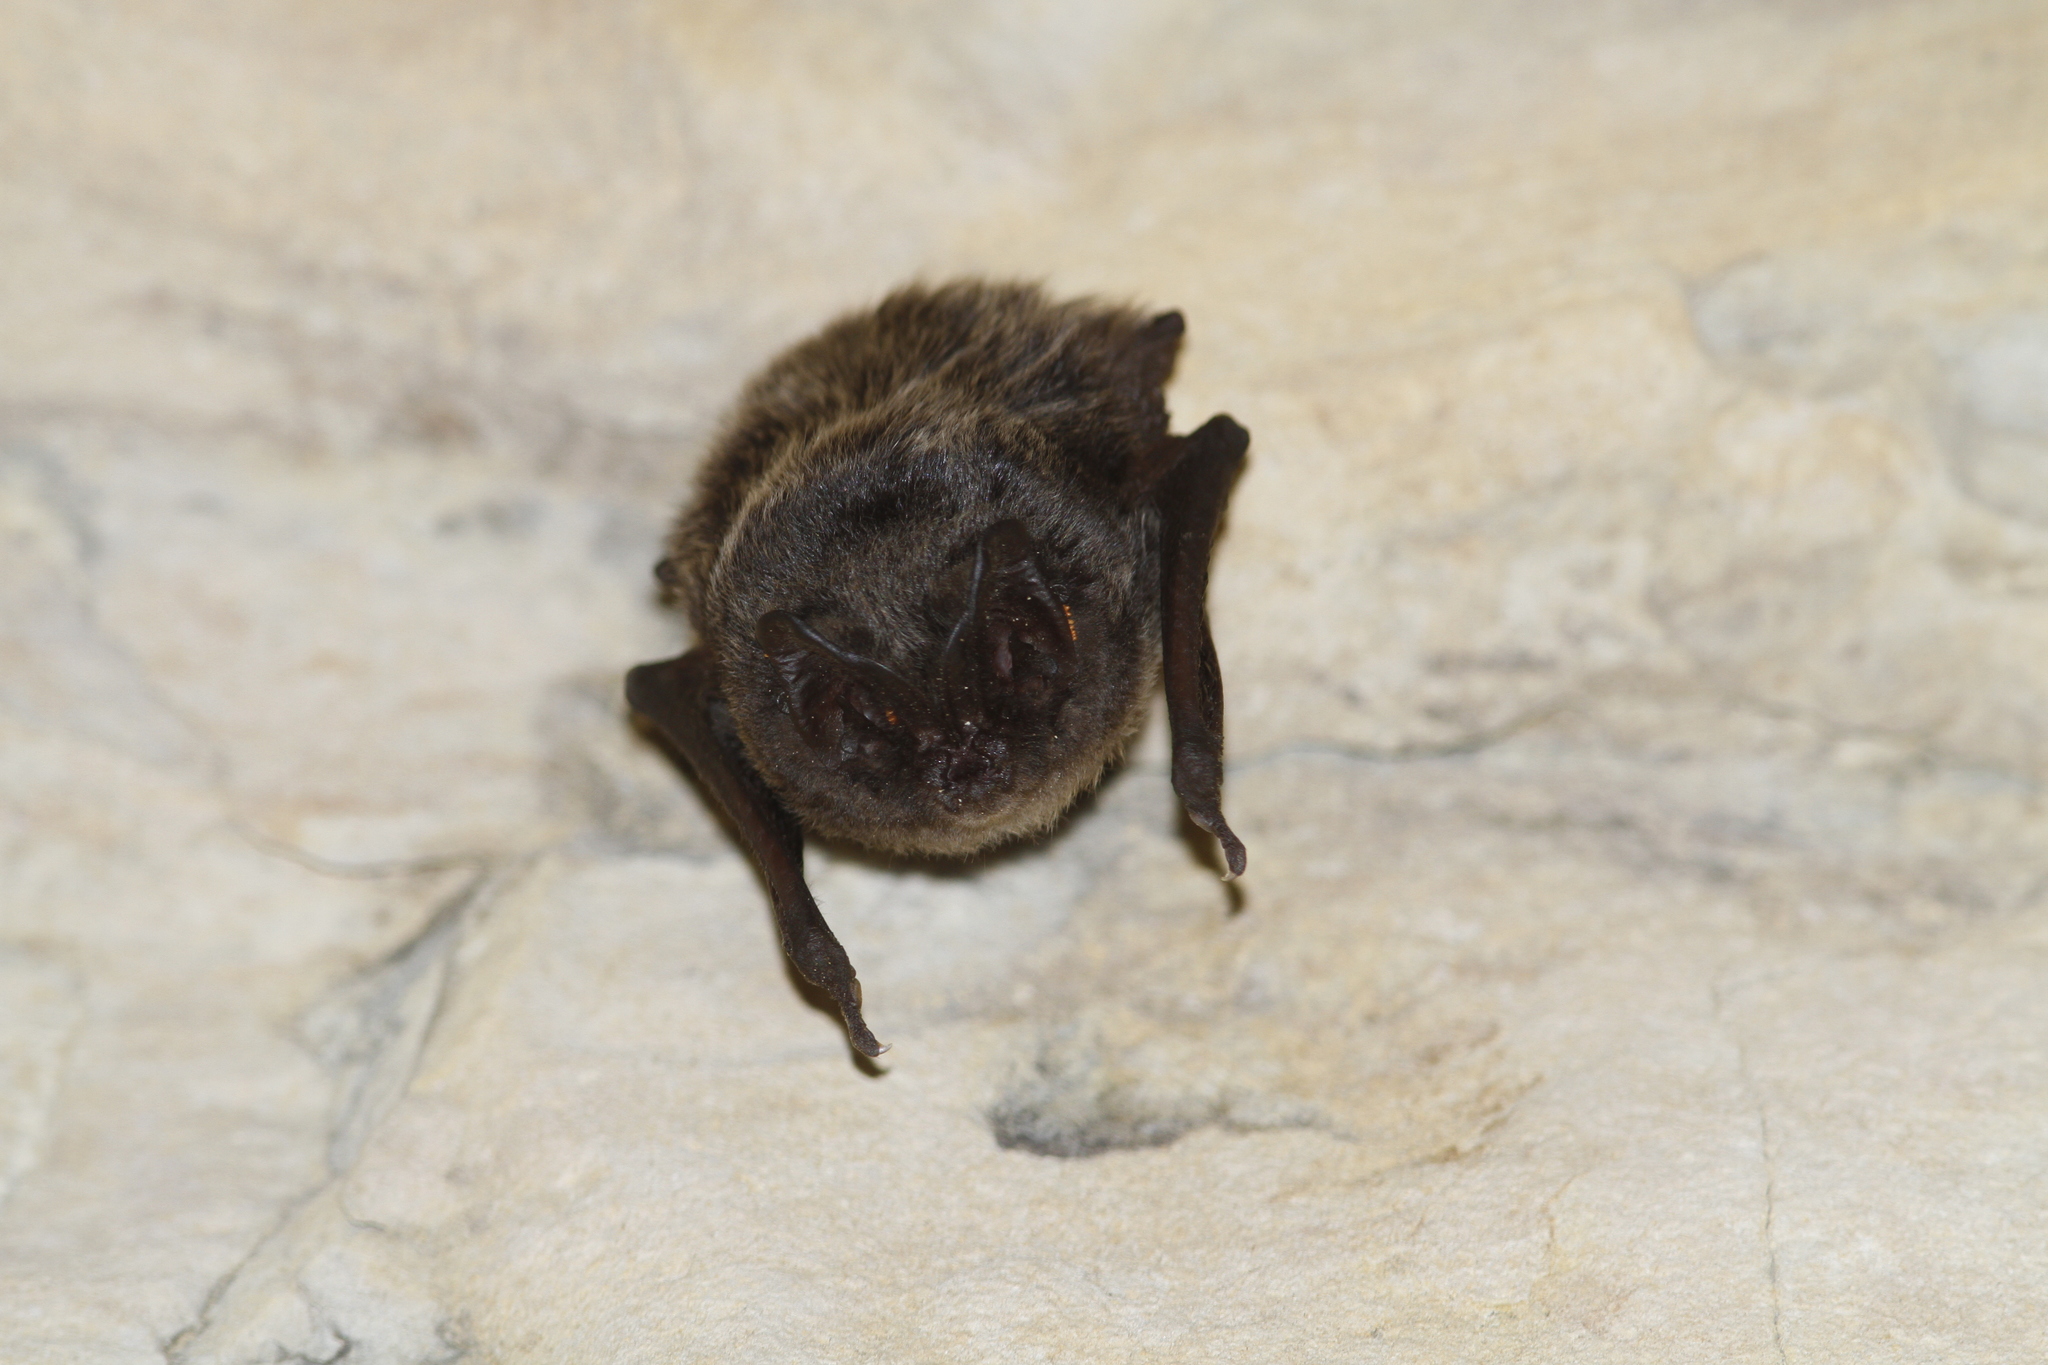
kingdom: Animalia
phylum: Chordata
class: Mammalia
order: Chiroptera
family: Vespertilionidae
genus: Barbastella
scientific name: Barbastella barbastellus
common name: Western barbastelle
